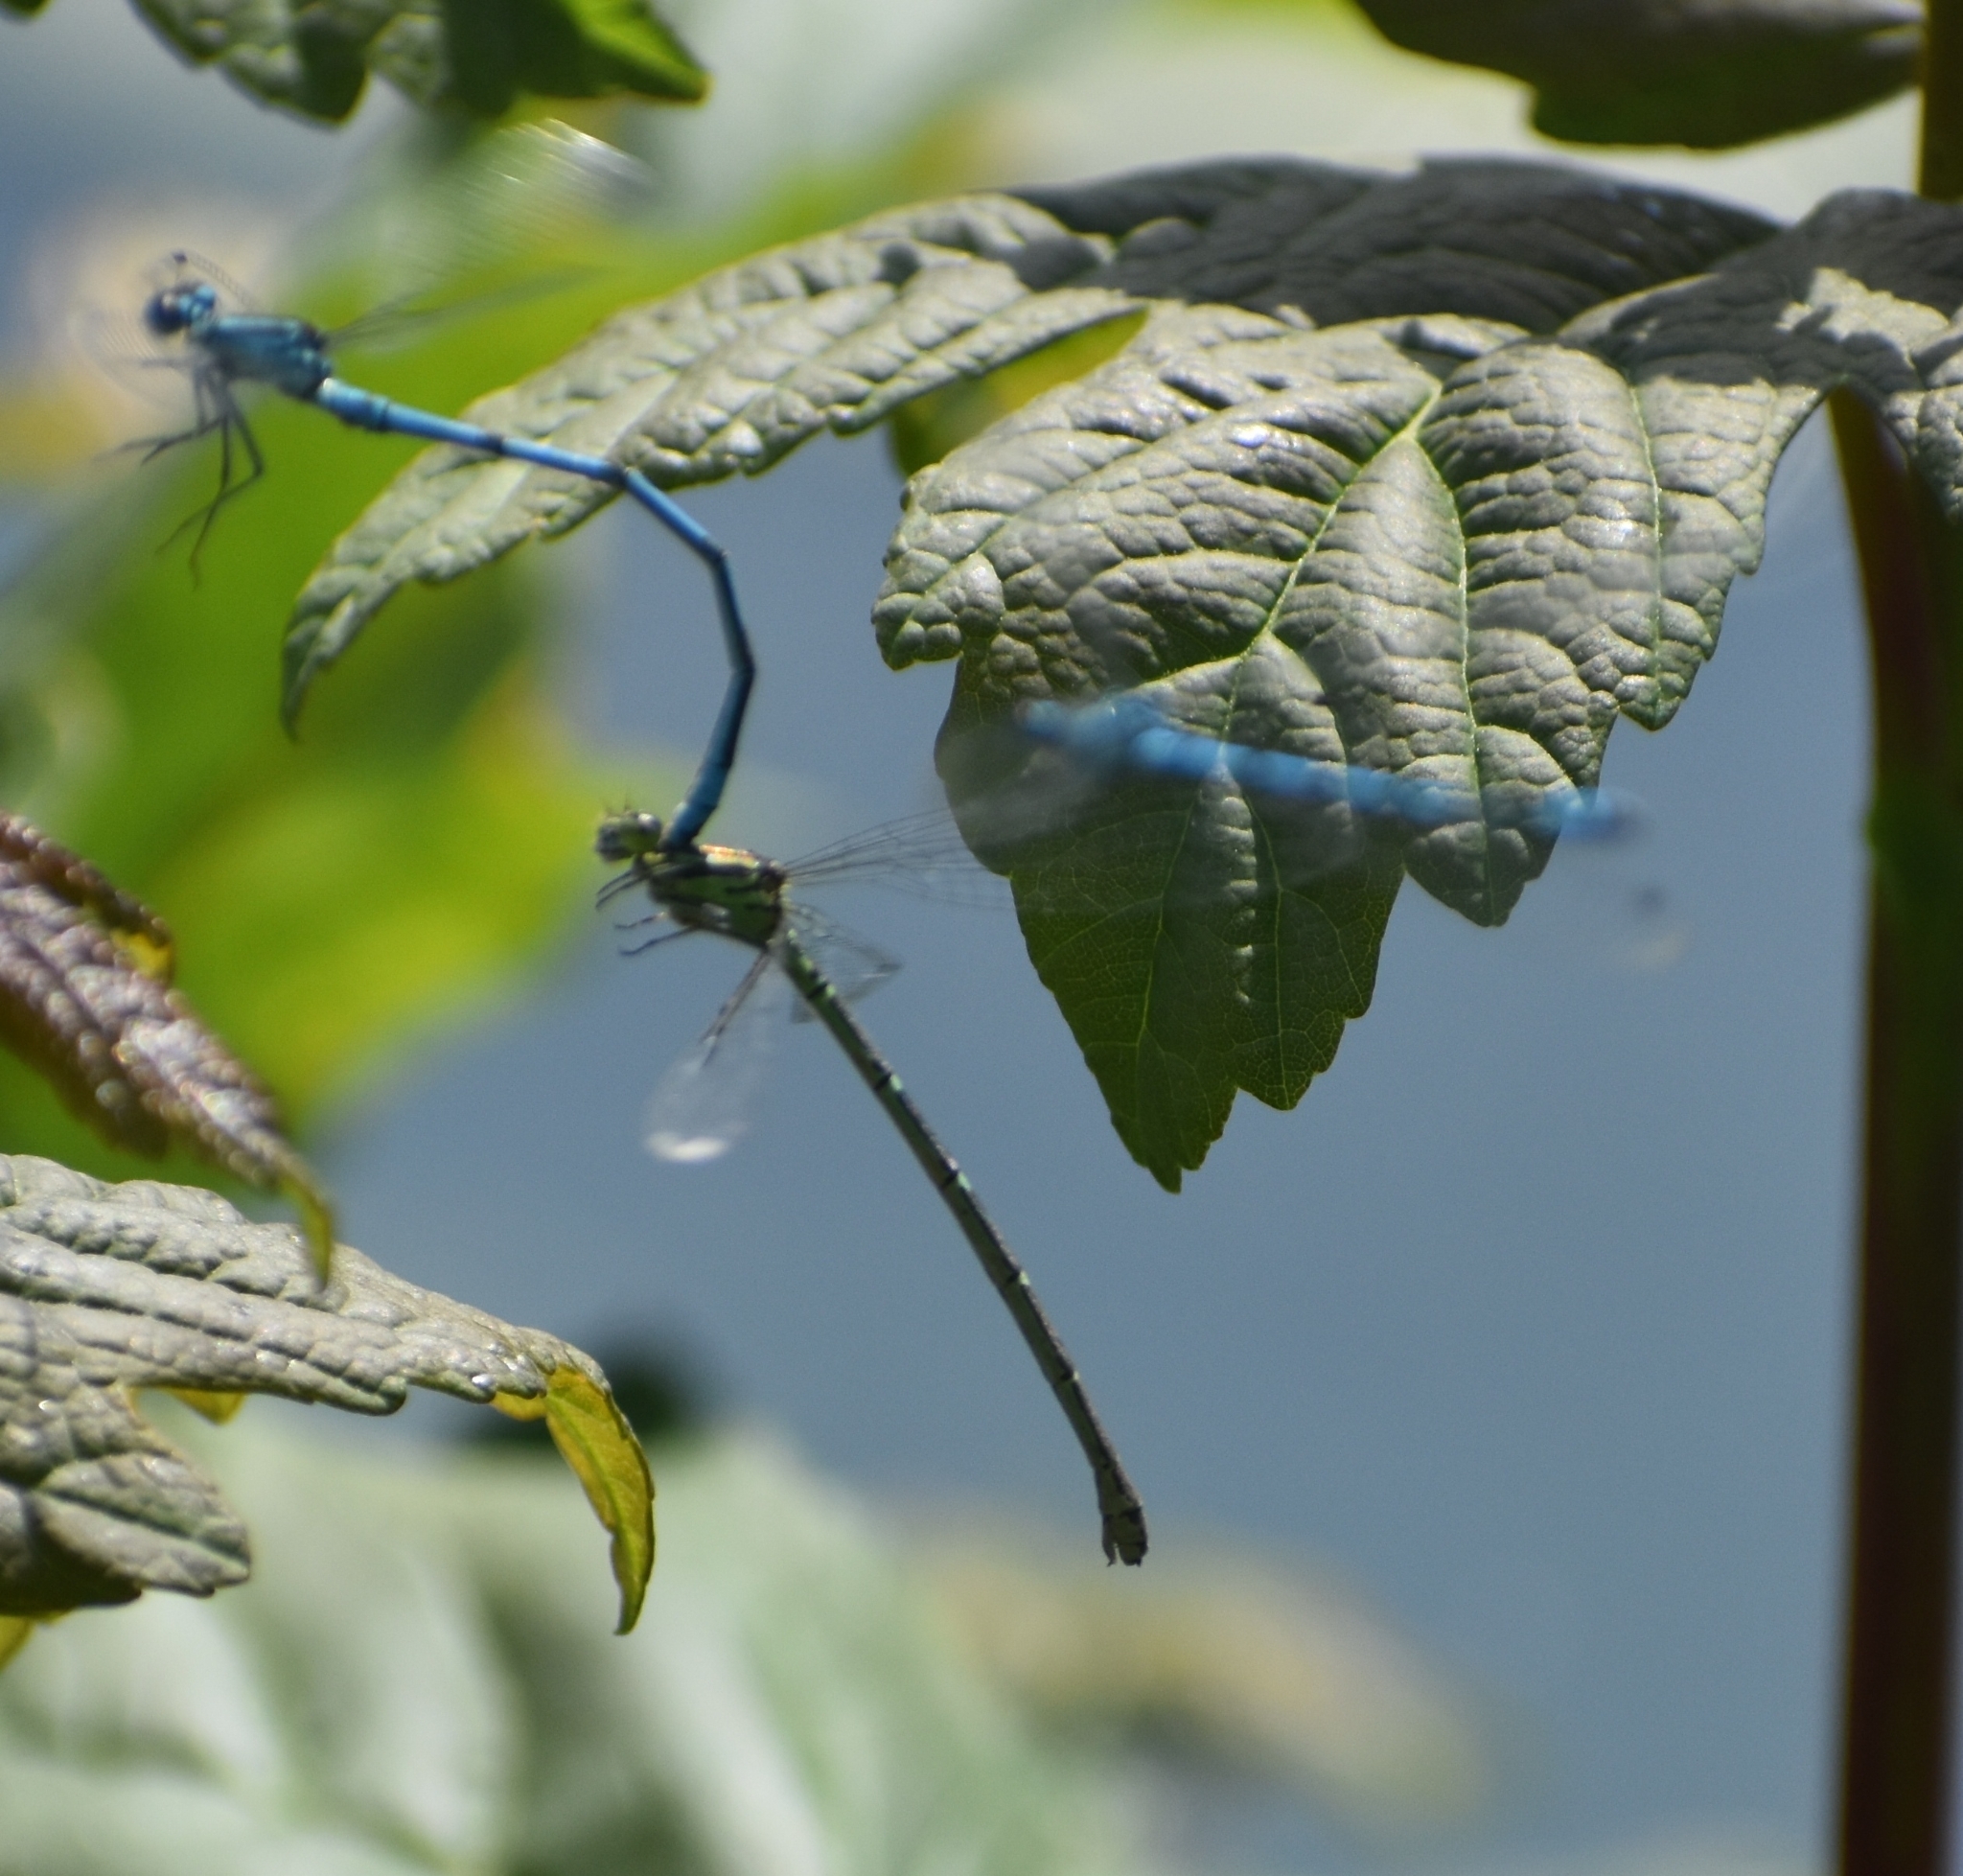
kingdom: Animalia
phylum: Arthropoda
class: Insecta
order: Odonata
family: Coenagrionidae
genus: Coenagrion
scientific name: Coenagrion puella
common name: Azure damselfly
